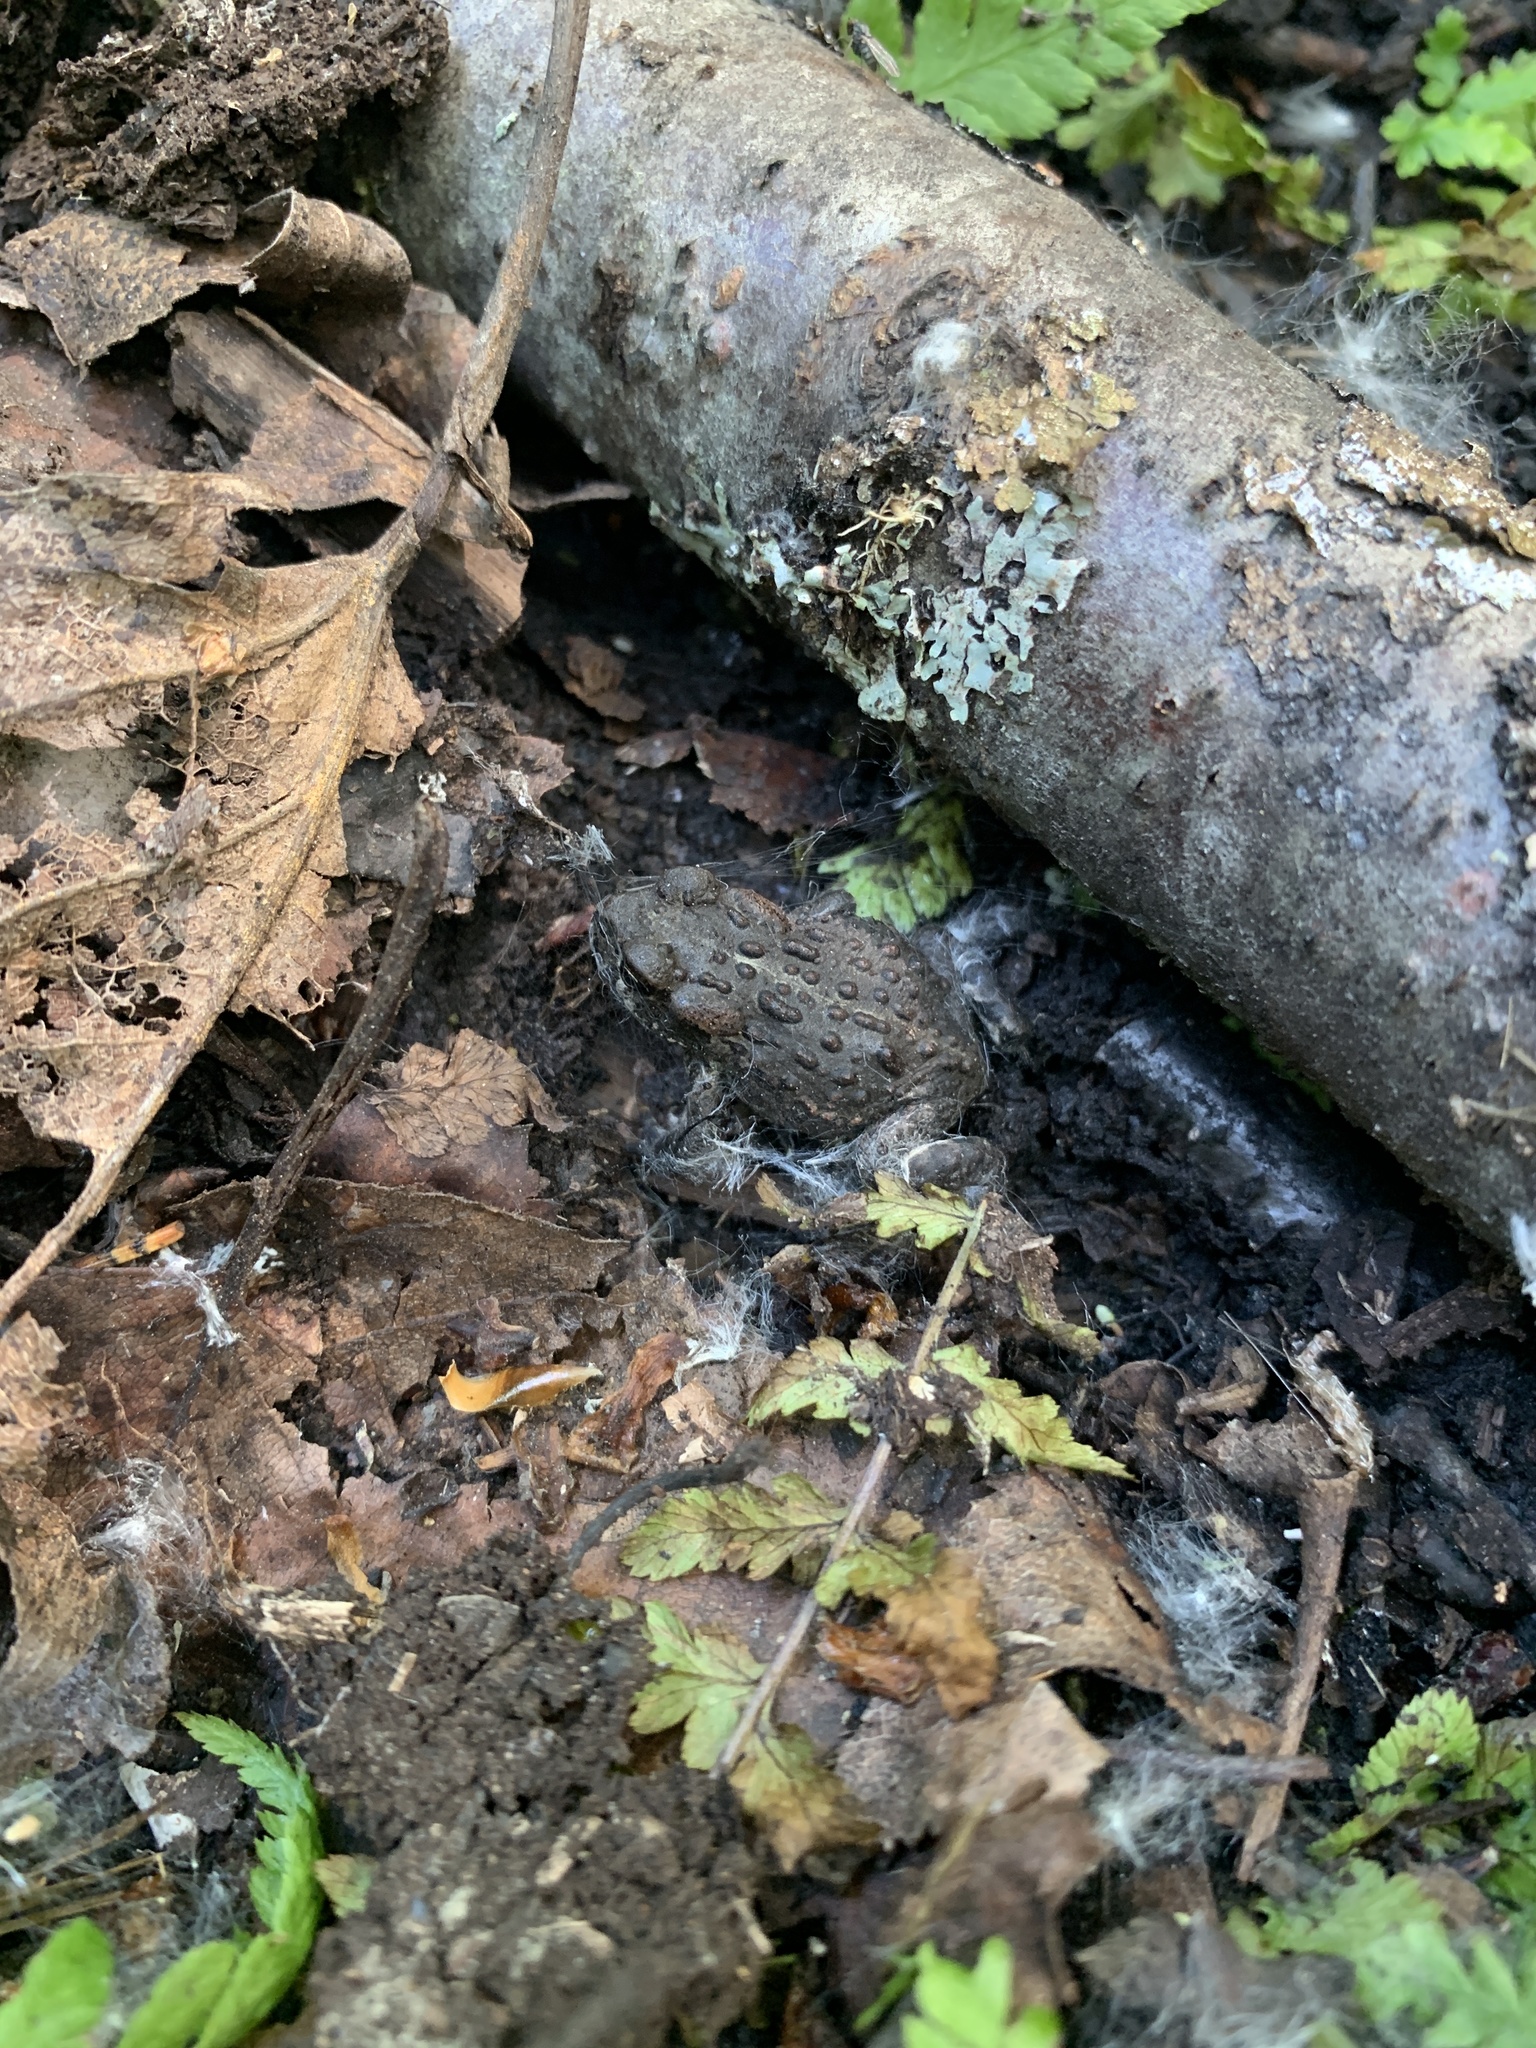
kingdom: Animalia
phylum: Chordata
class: Amphibia
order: Anura
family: Bufonidae
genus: Anaxyrus
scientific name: Anaxyrus boreas
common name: Western toad
